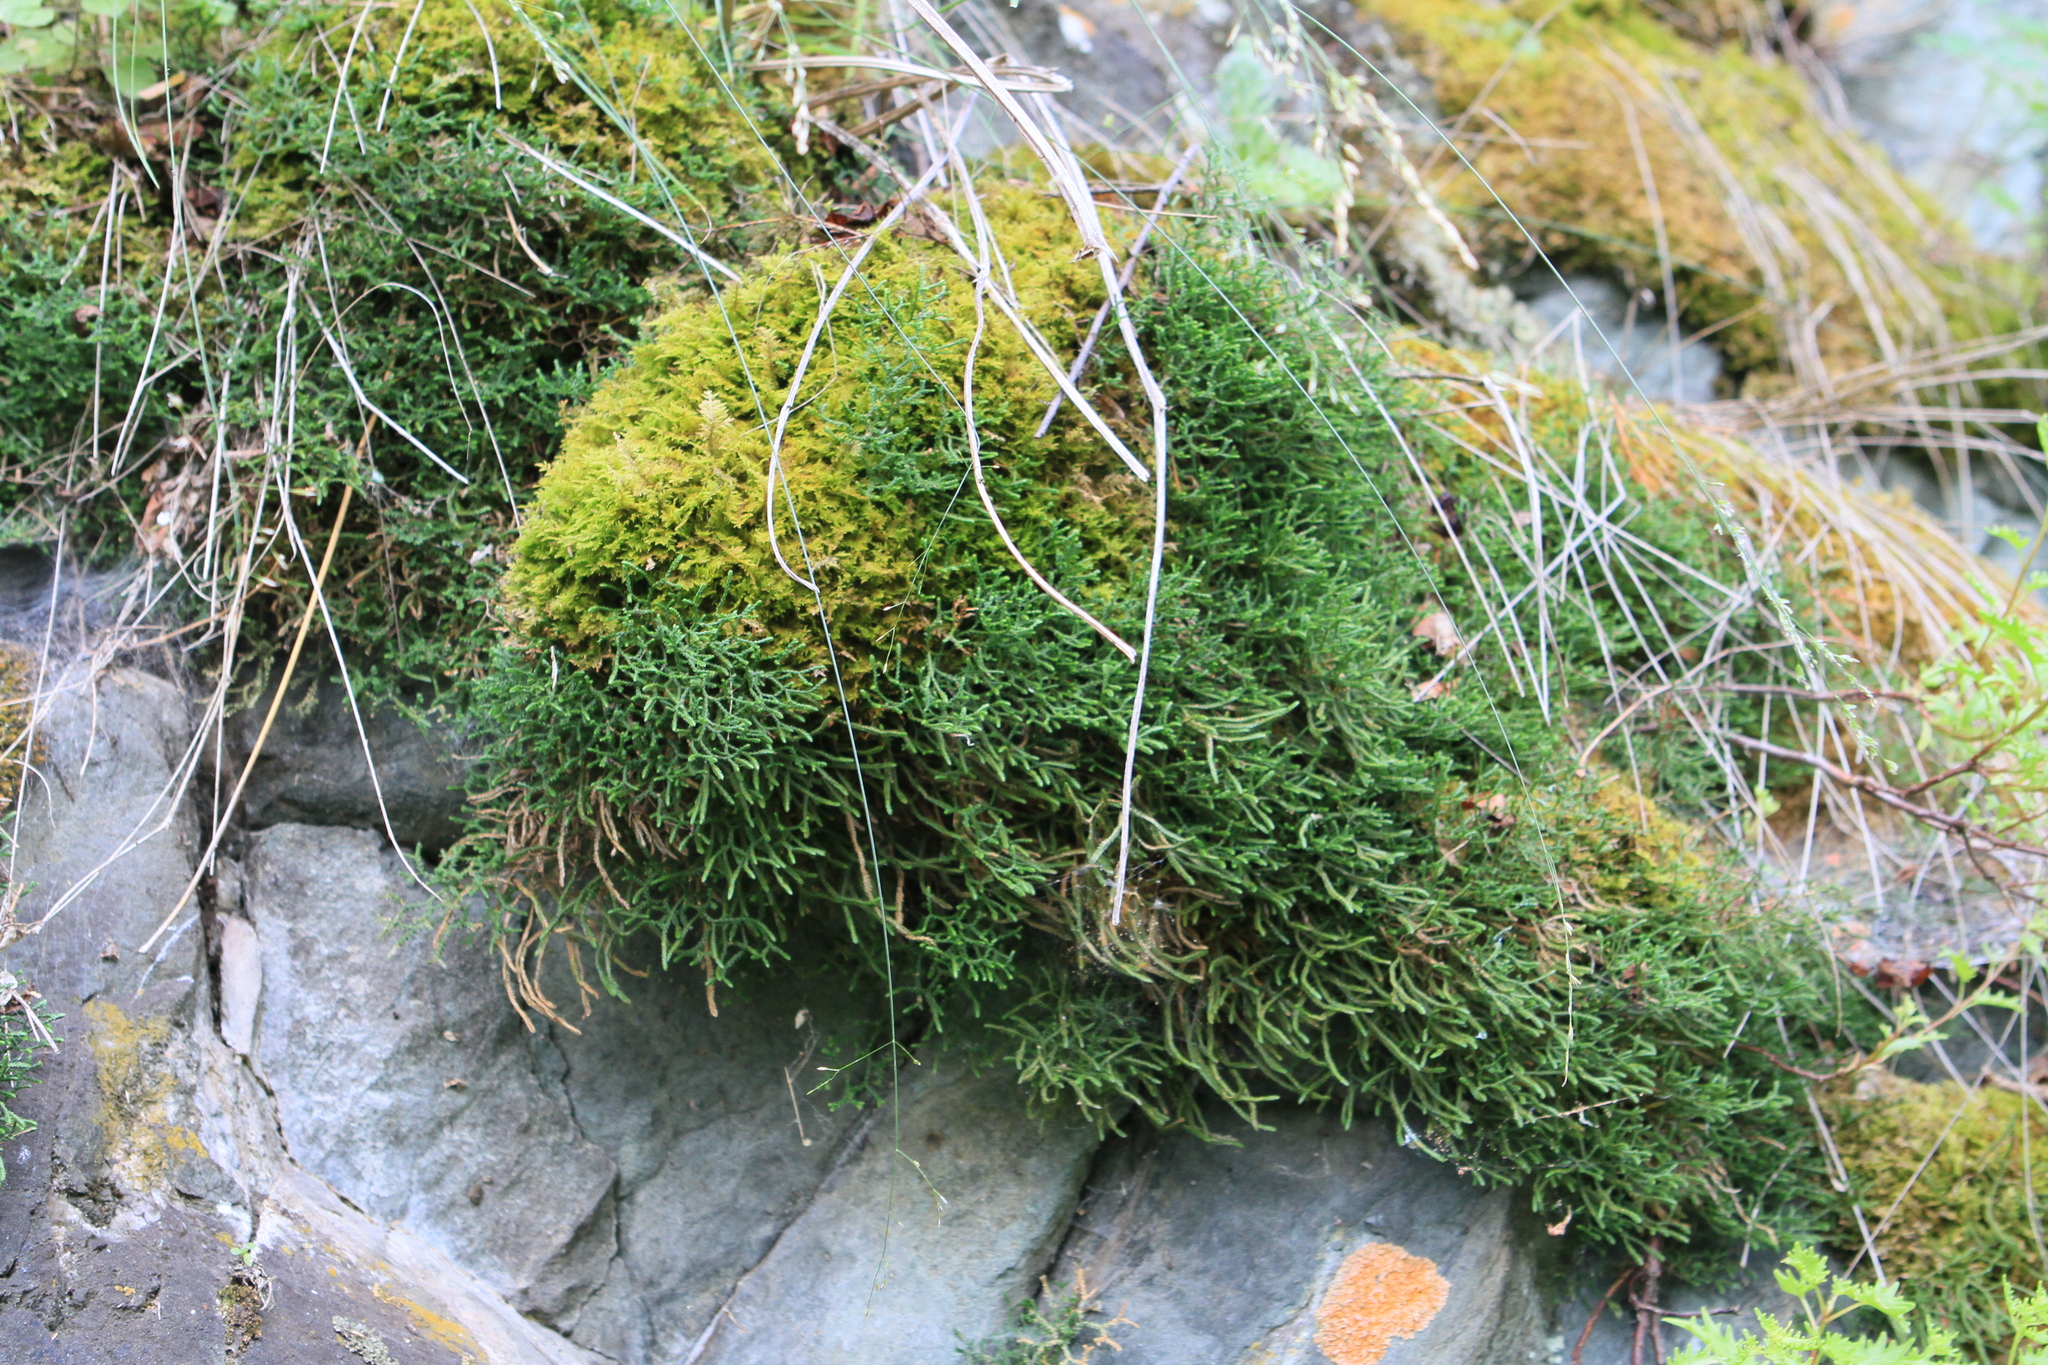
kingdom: Plantae
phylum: Tracheophyta
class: Lycopodiopsida
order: Selaginellales
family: Selaginellaceae
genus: Selaginella
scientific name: Selaginella sanguinolenta
